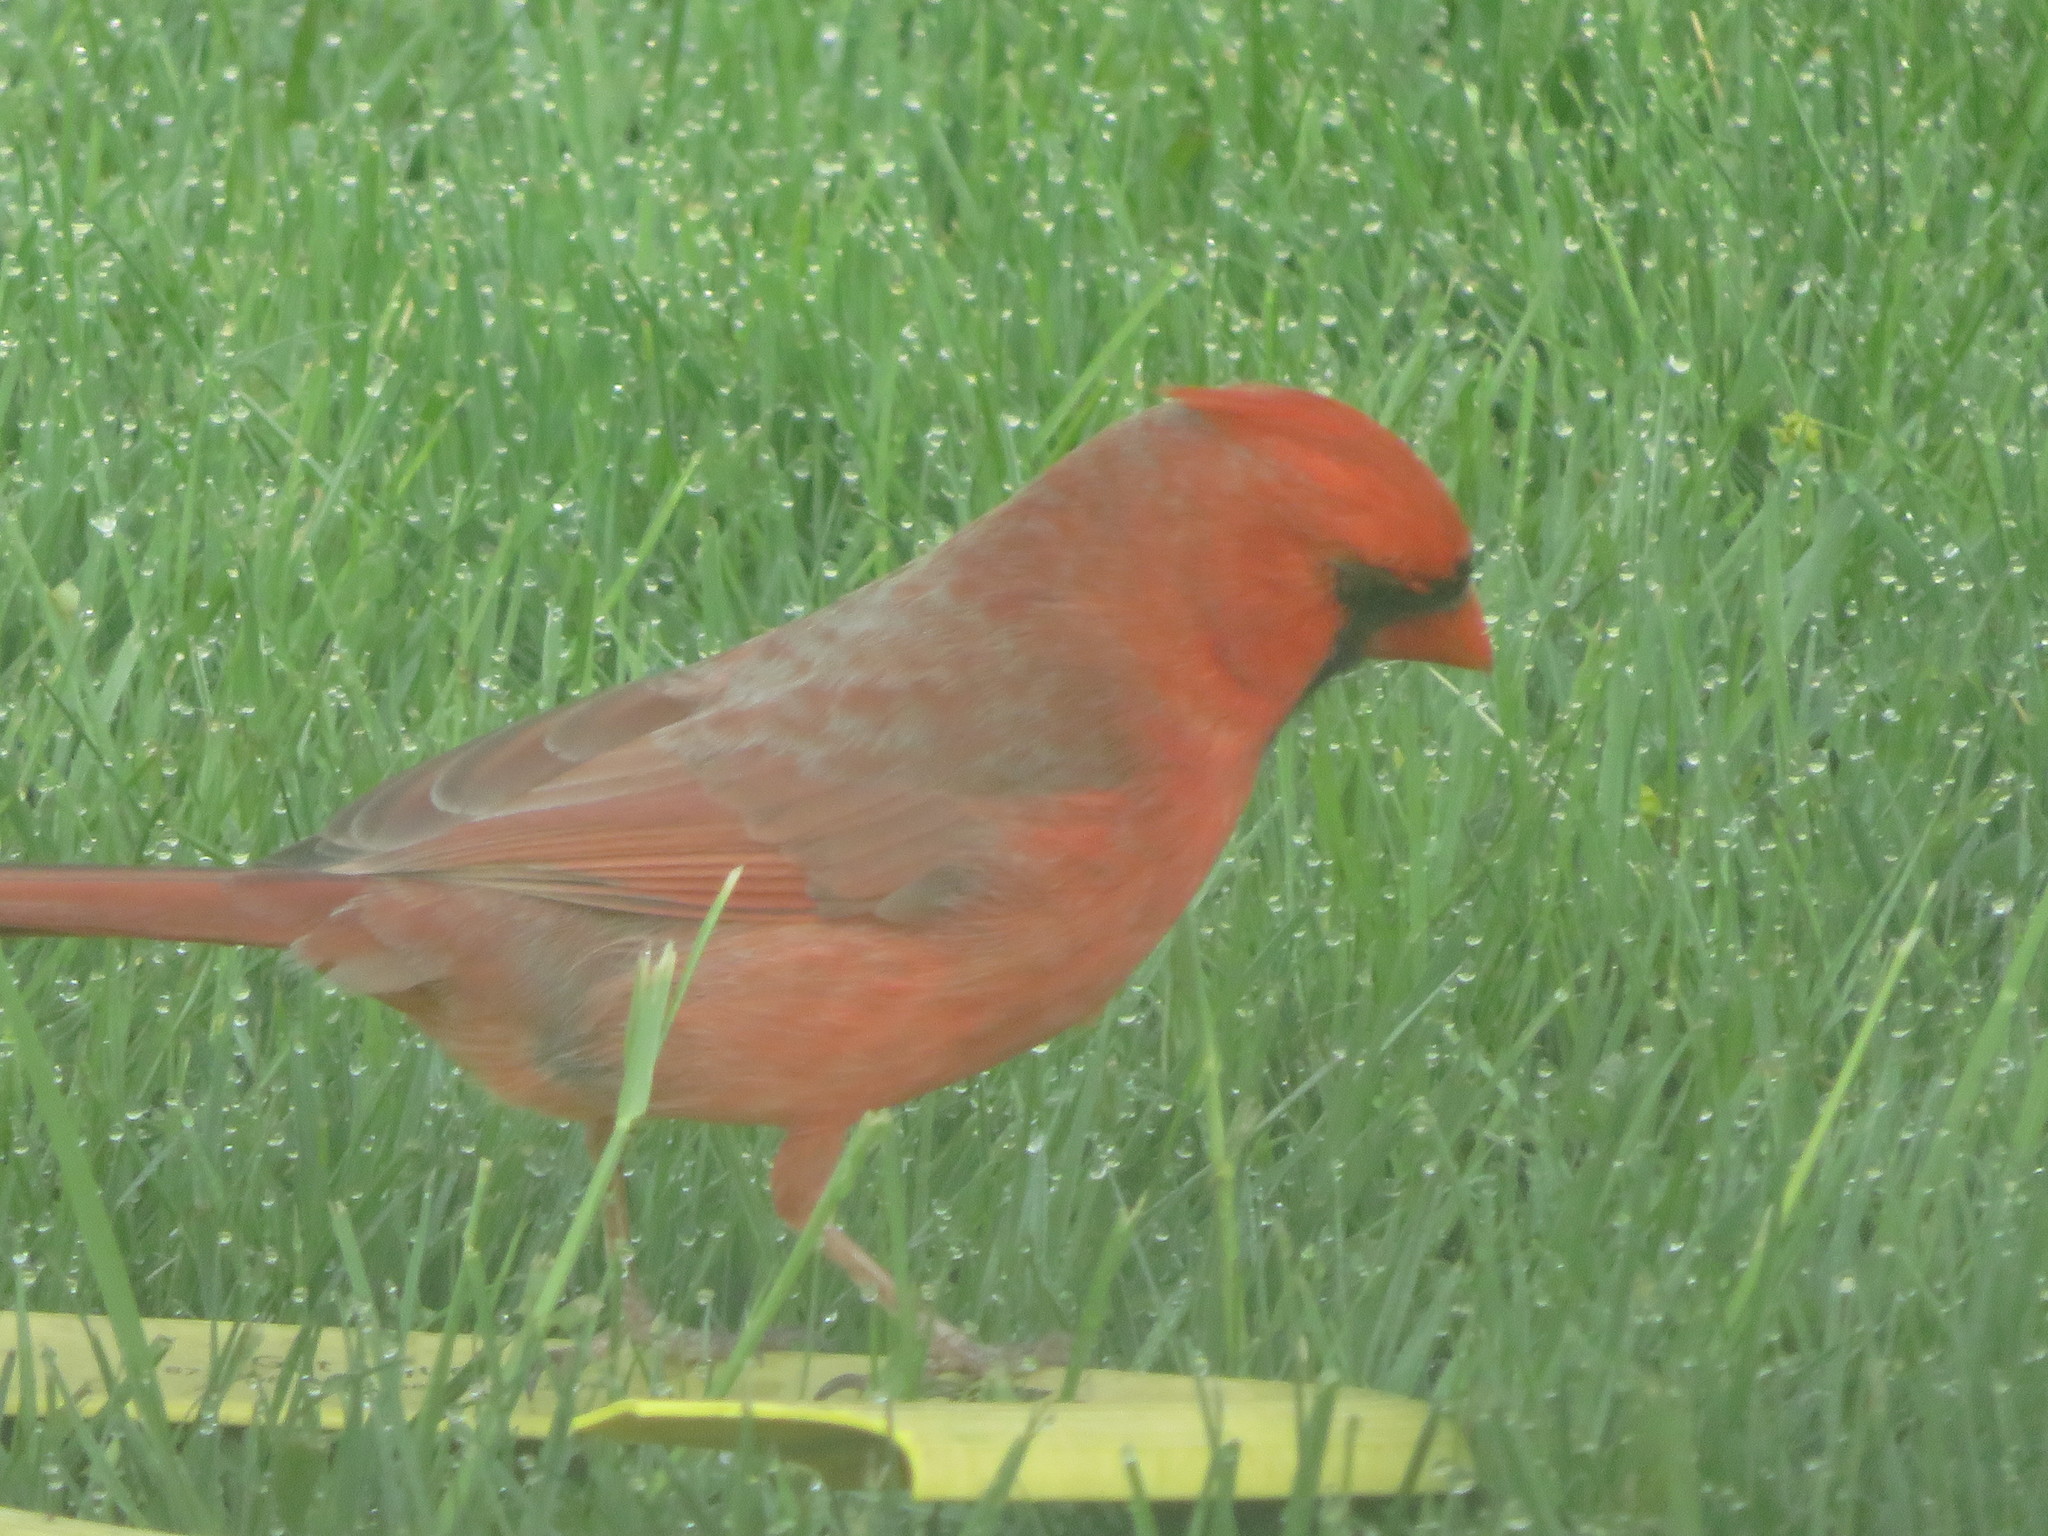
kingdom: Animalia
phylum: Chordata
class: Aves
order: Passeriformes
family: Cardinalidae
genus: Cardinalis
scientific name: Cardinalis cardinalis
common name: Northern cardinal
